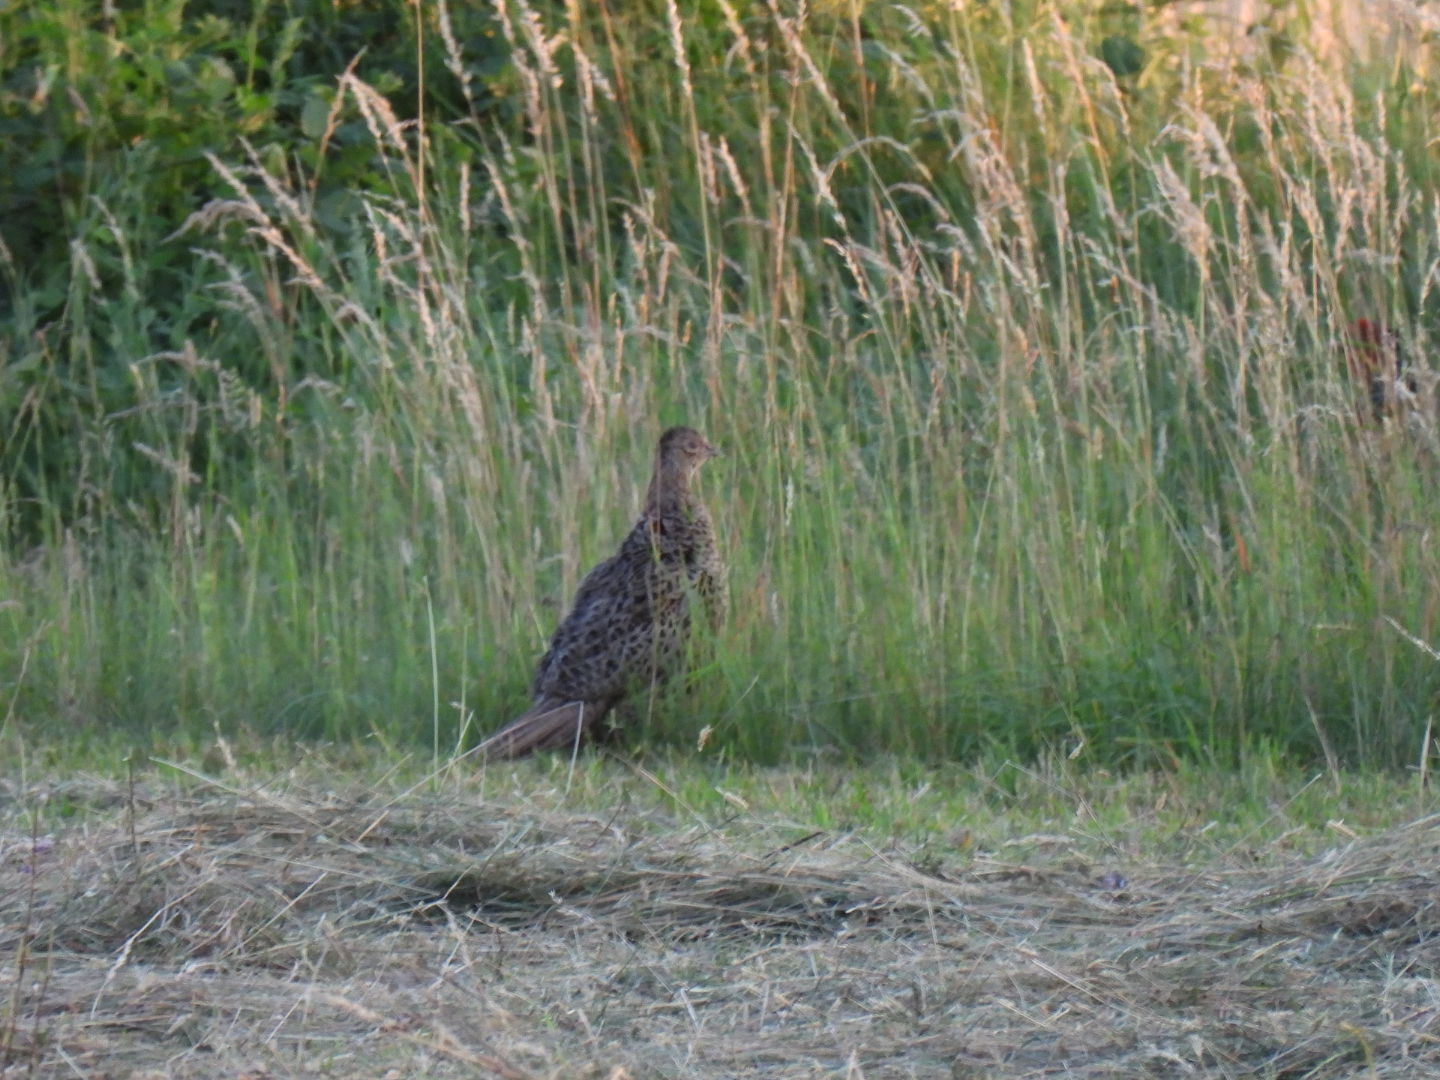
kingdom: Animalia
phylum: Chordata
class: Aves
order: Galliformes
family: Phasianidae
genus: Phasianus
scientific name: Phasianus colchicus
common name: Common pheasant
